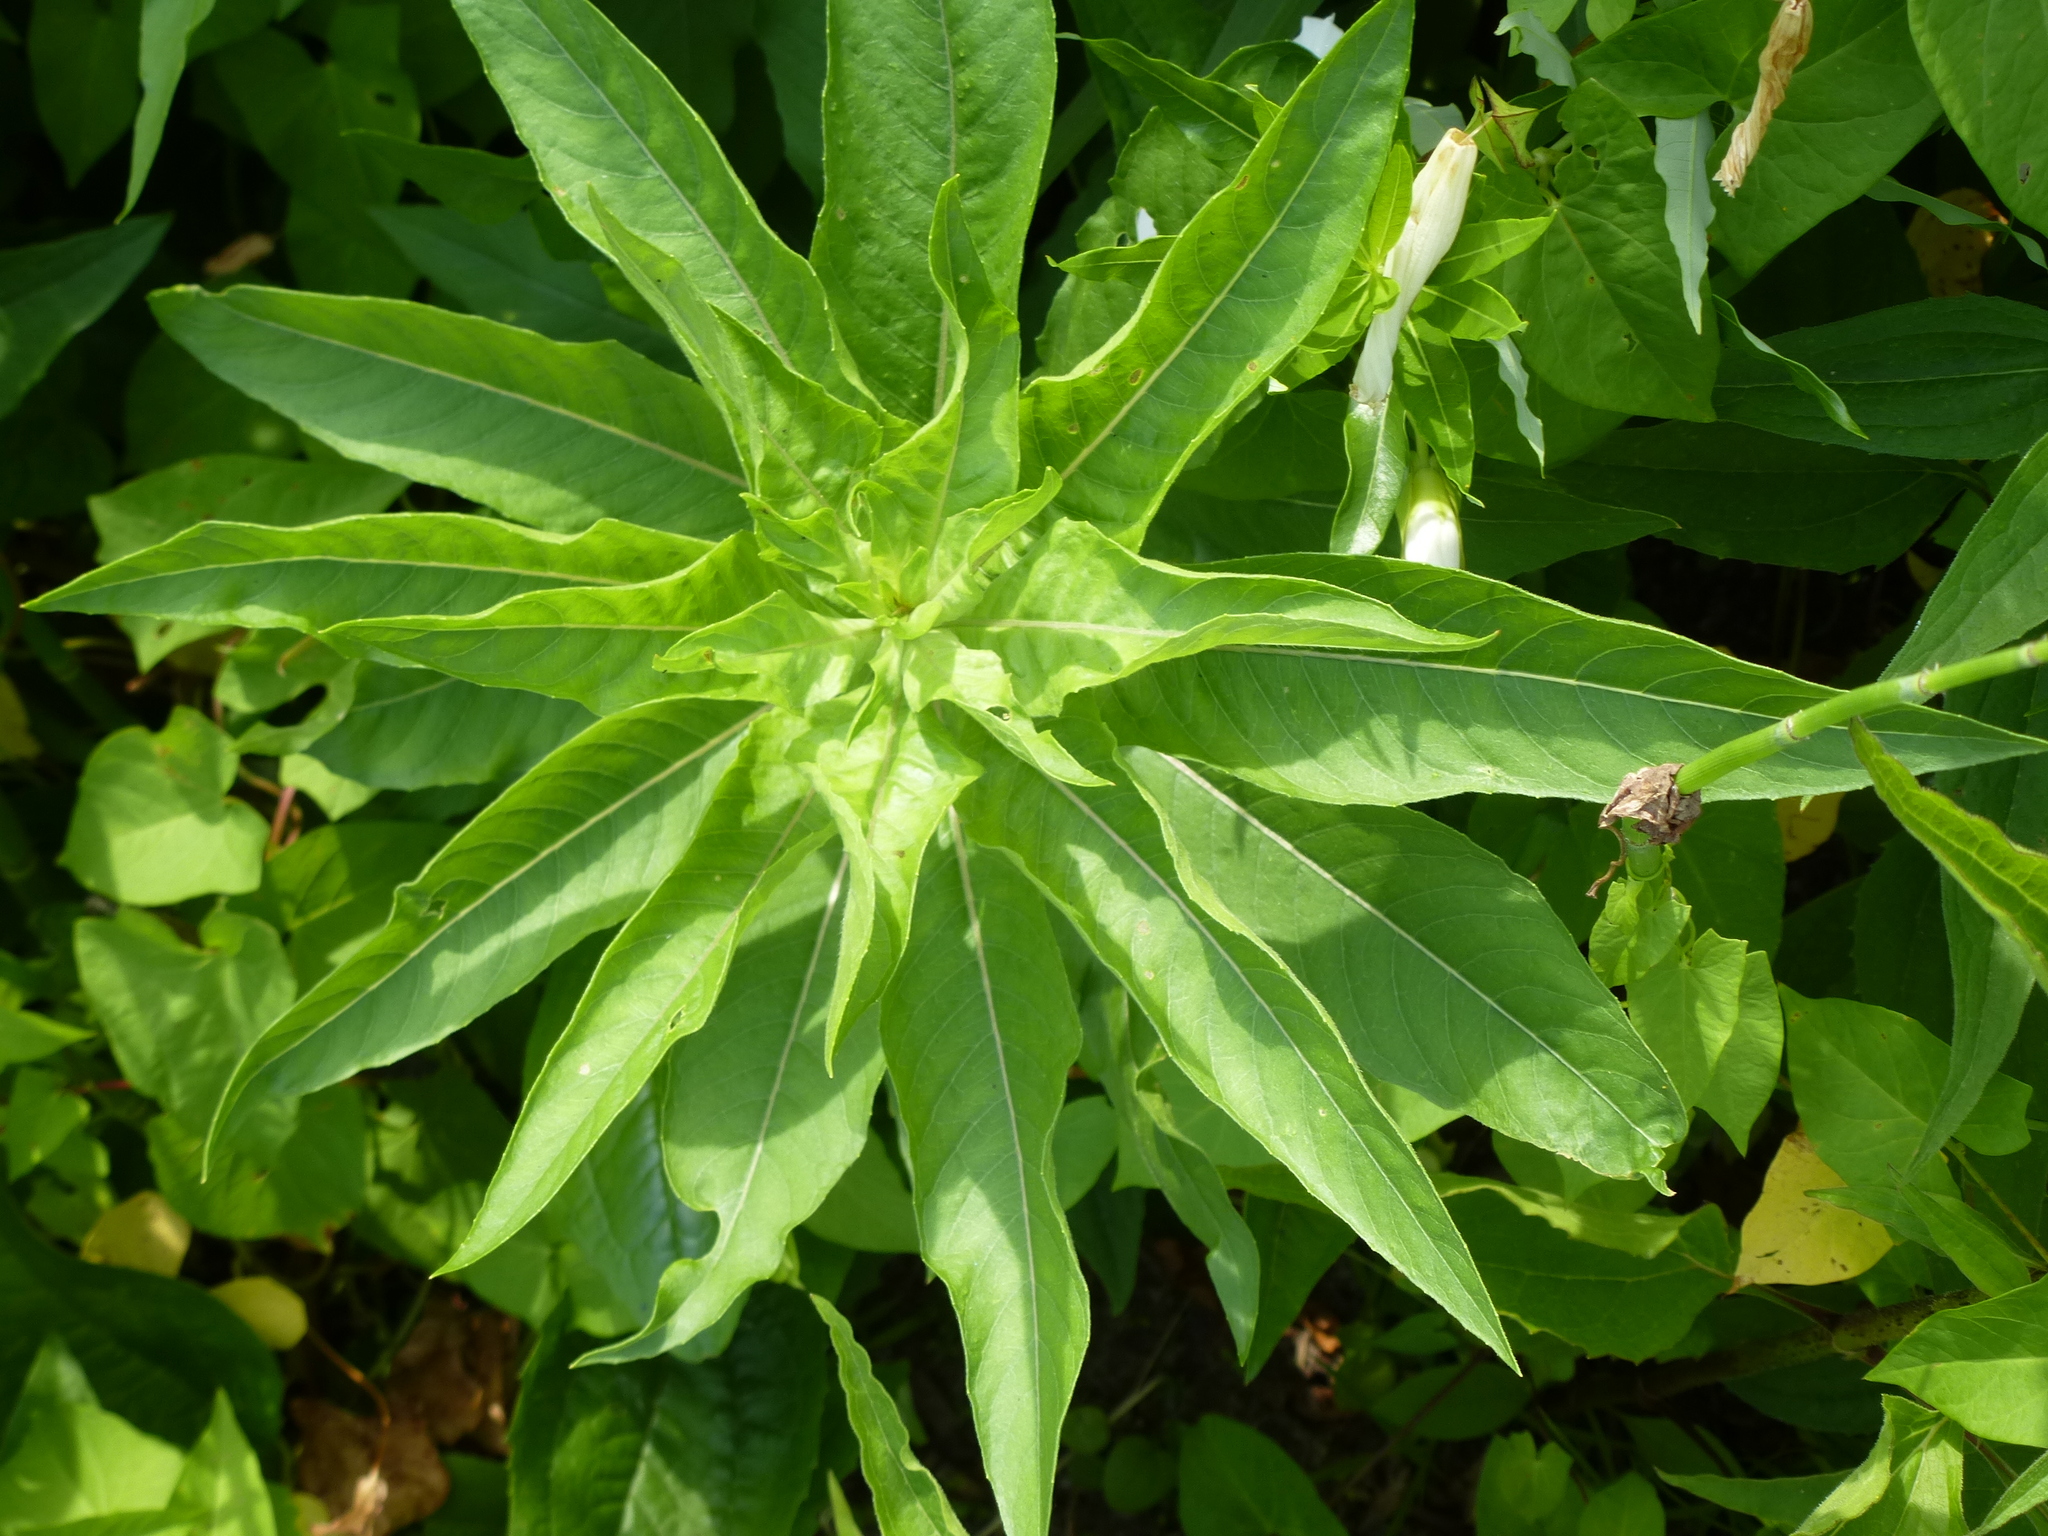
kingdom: Plantae
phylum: Tracheophyta
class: Magnoliopsida
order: Myrtales
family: Onagraceae
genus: Oenothera
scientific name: Oenothera biennis
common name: Common evening-primrose
